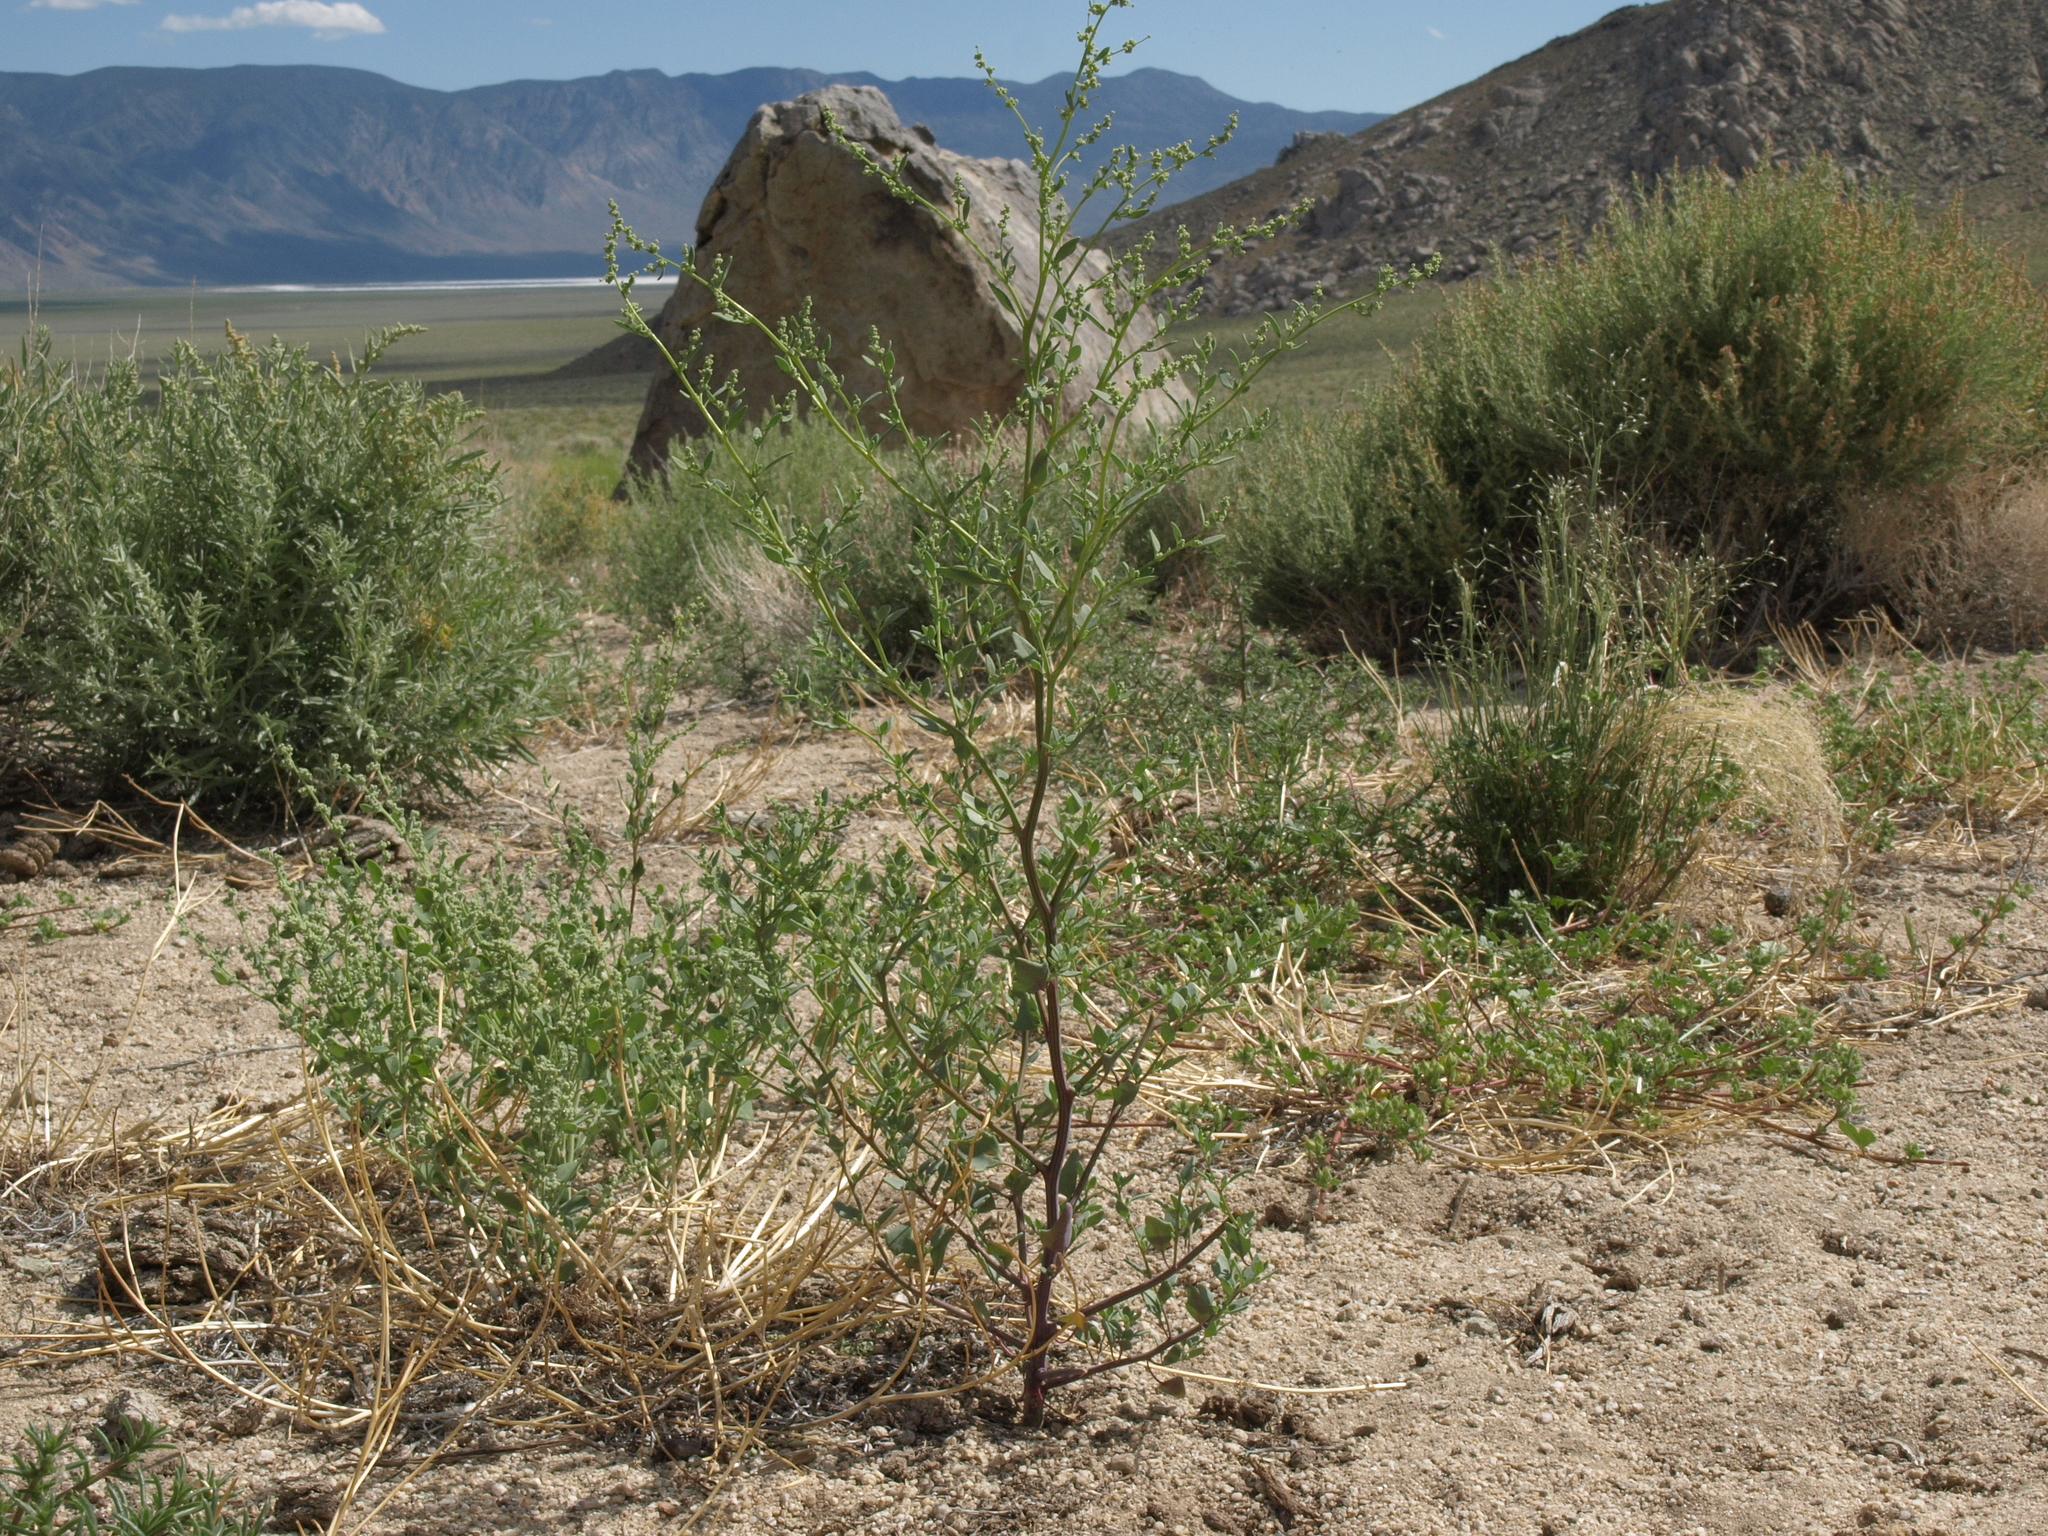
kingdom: Plantae
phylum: Tracheophyta
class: Magnoliopsida
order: Caryophyllales
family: Amaranthaceae
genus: Chenopodium
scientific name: Chenopodium fremontii
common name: Fremont's goosefoot
